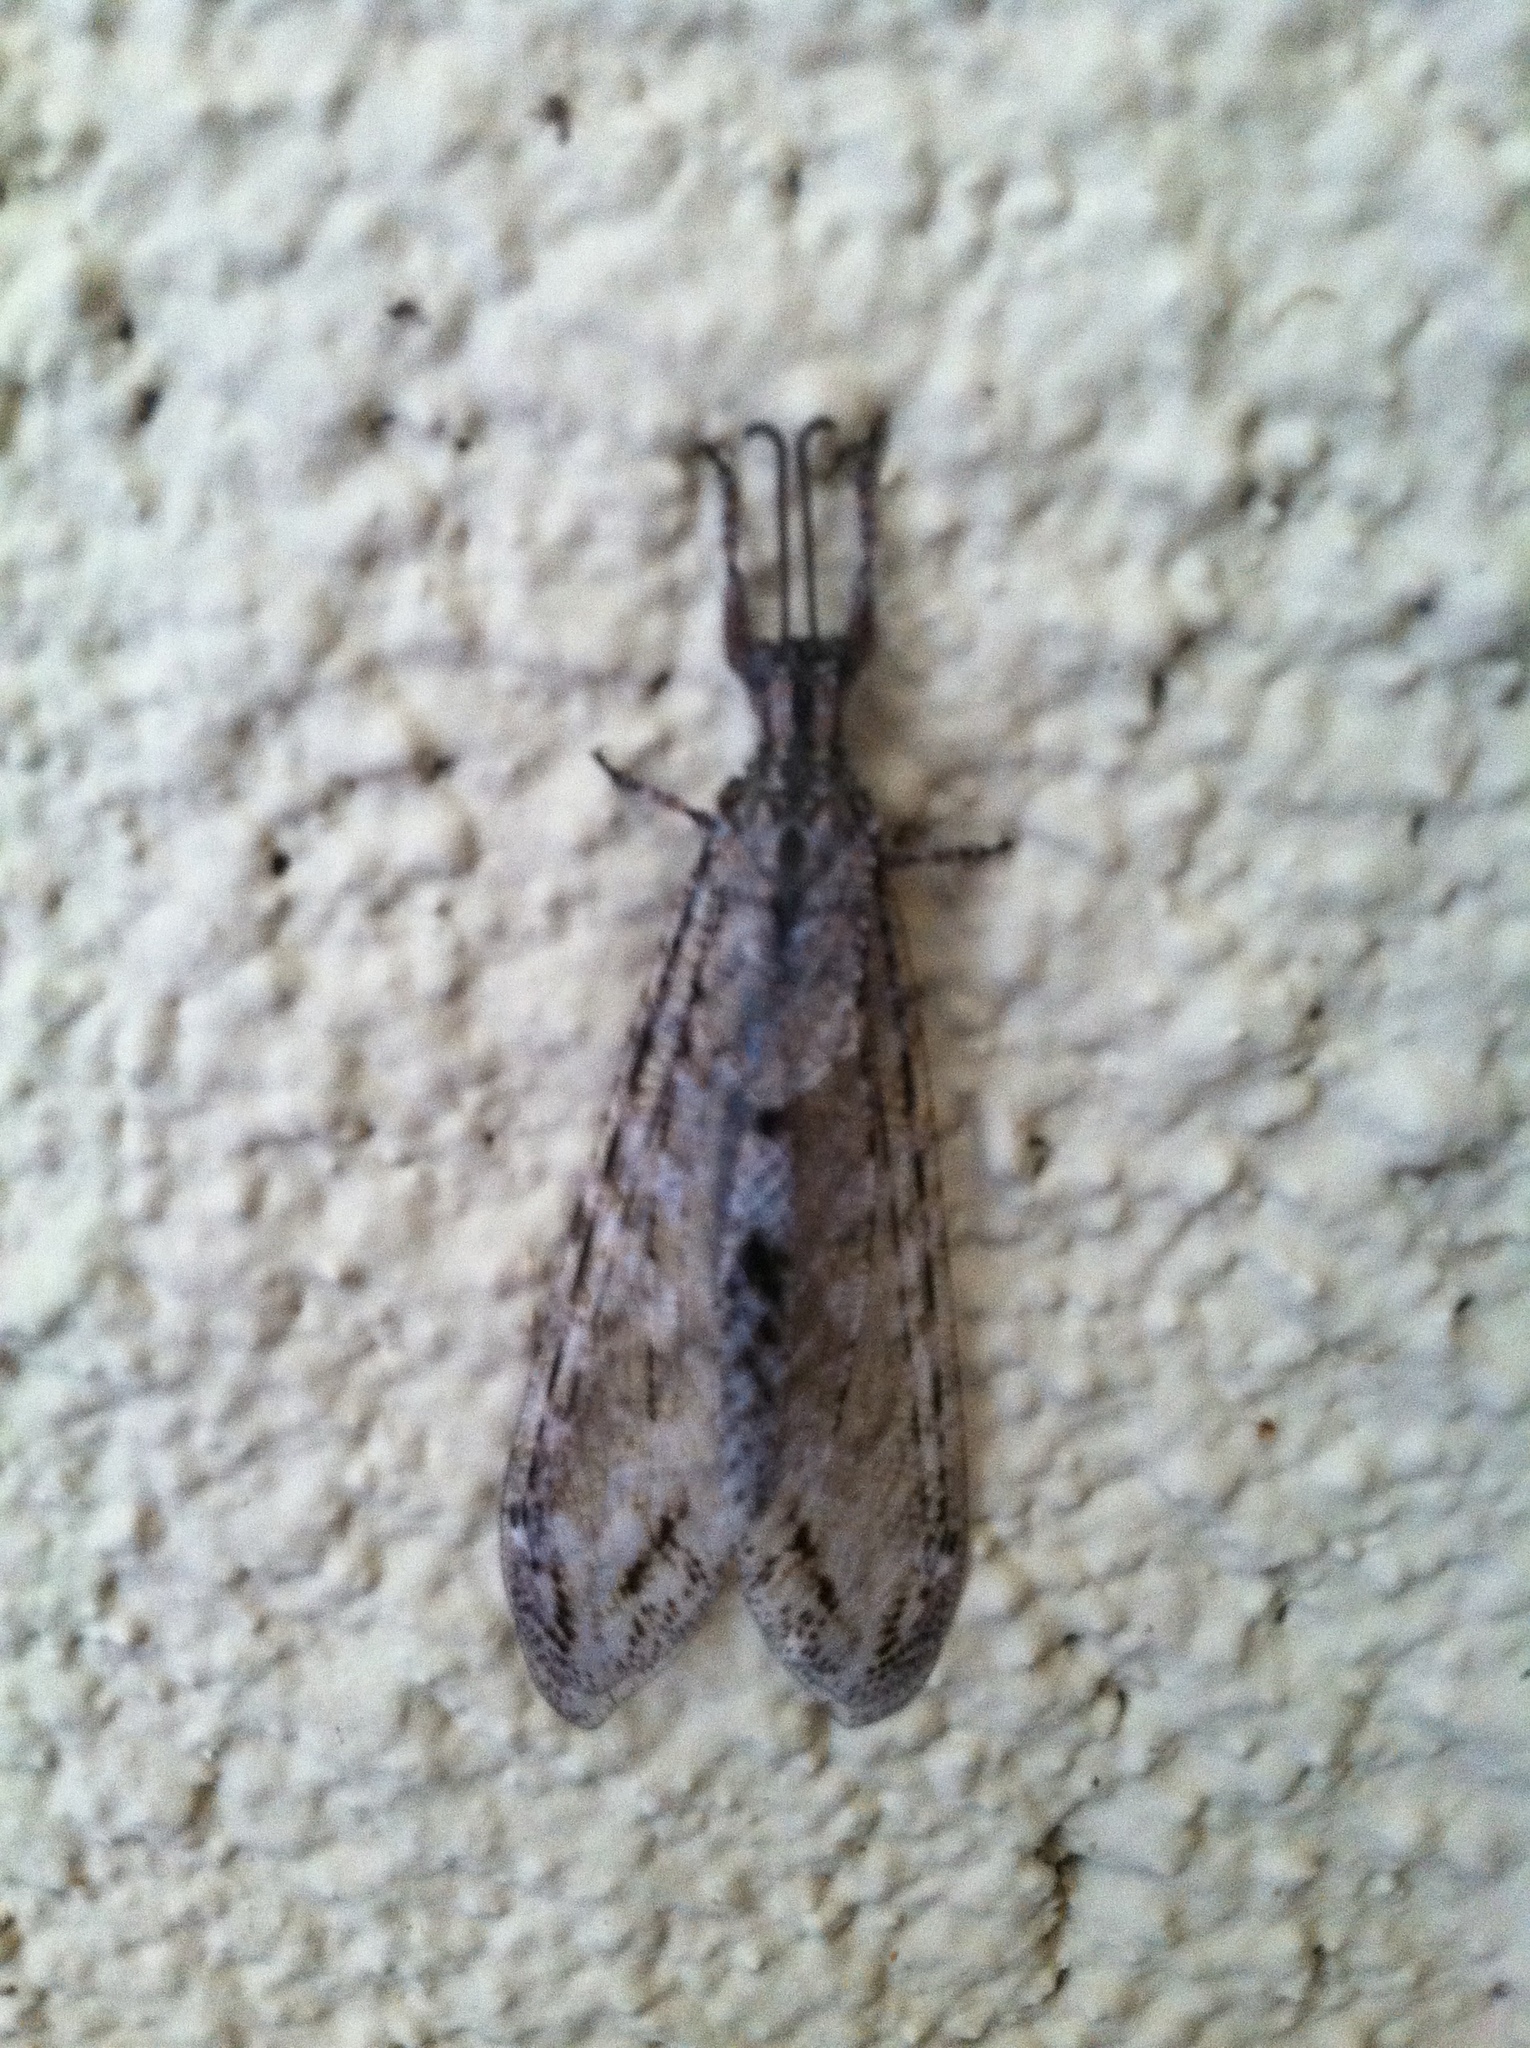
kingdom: Animalia
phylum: Arthropoda
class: Insecta
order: Neuroptera
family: Myrmeleontidae
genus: Vella
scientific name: Vella americana
